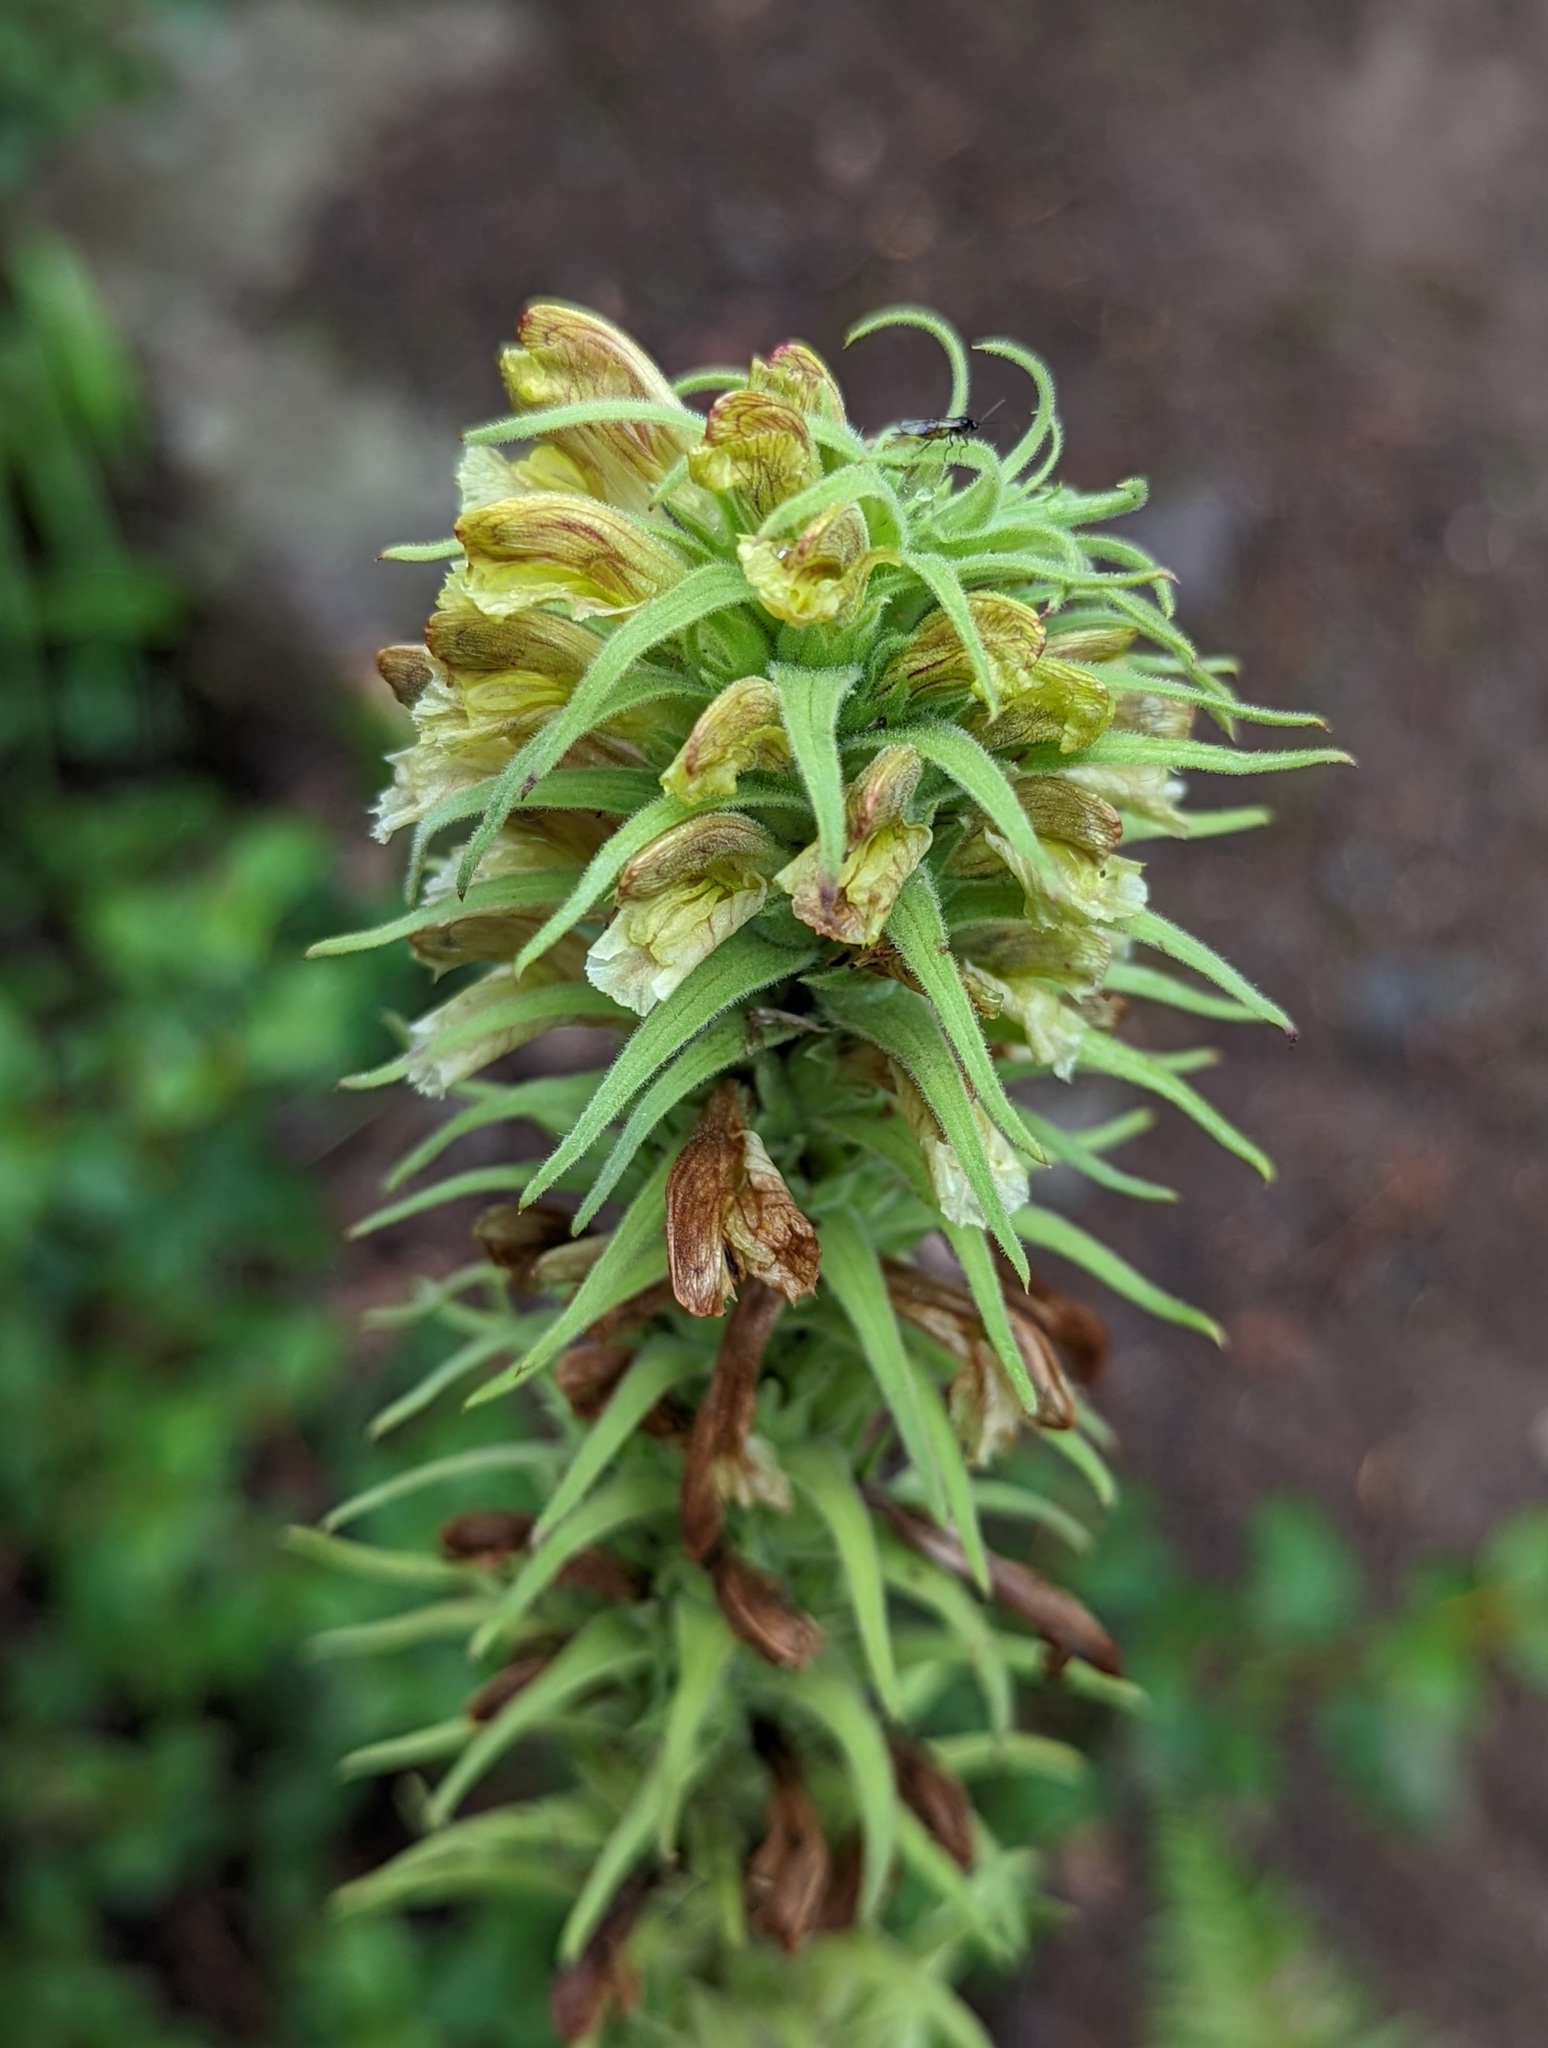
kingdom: Plantae
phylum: Tracheophyta
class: Magnoliopsida
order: Lamiales
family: Orobanchaceae
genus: Pedicularis
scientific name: Pedicularis procera
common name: Gray's lousewort
